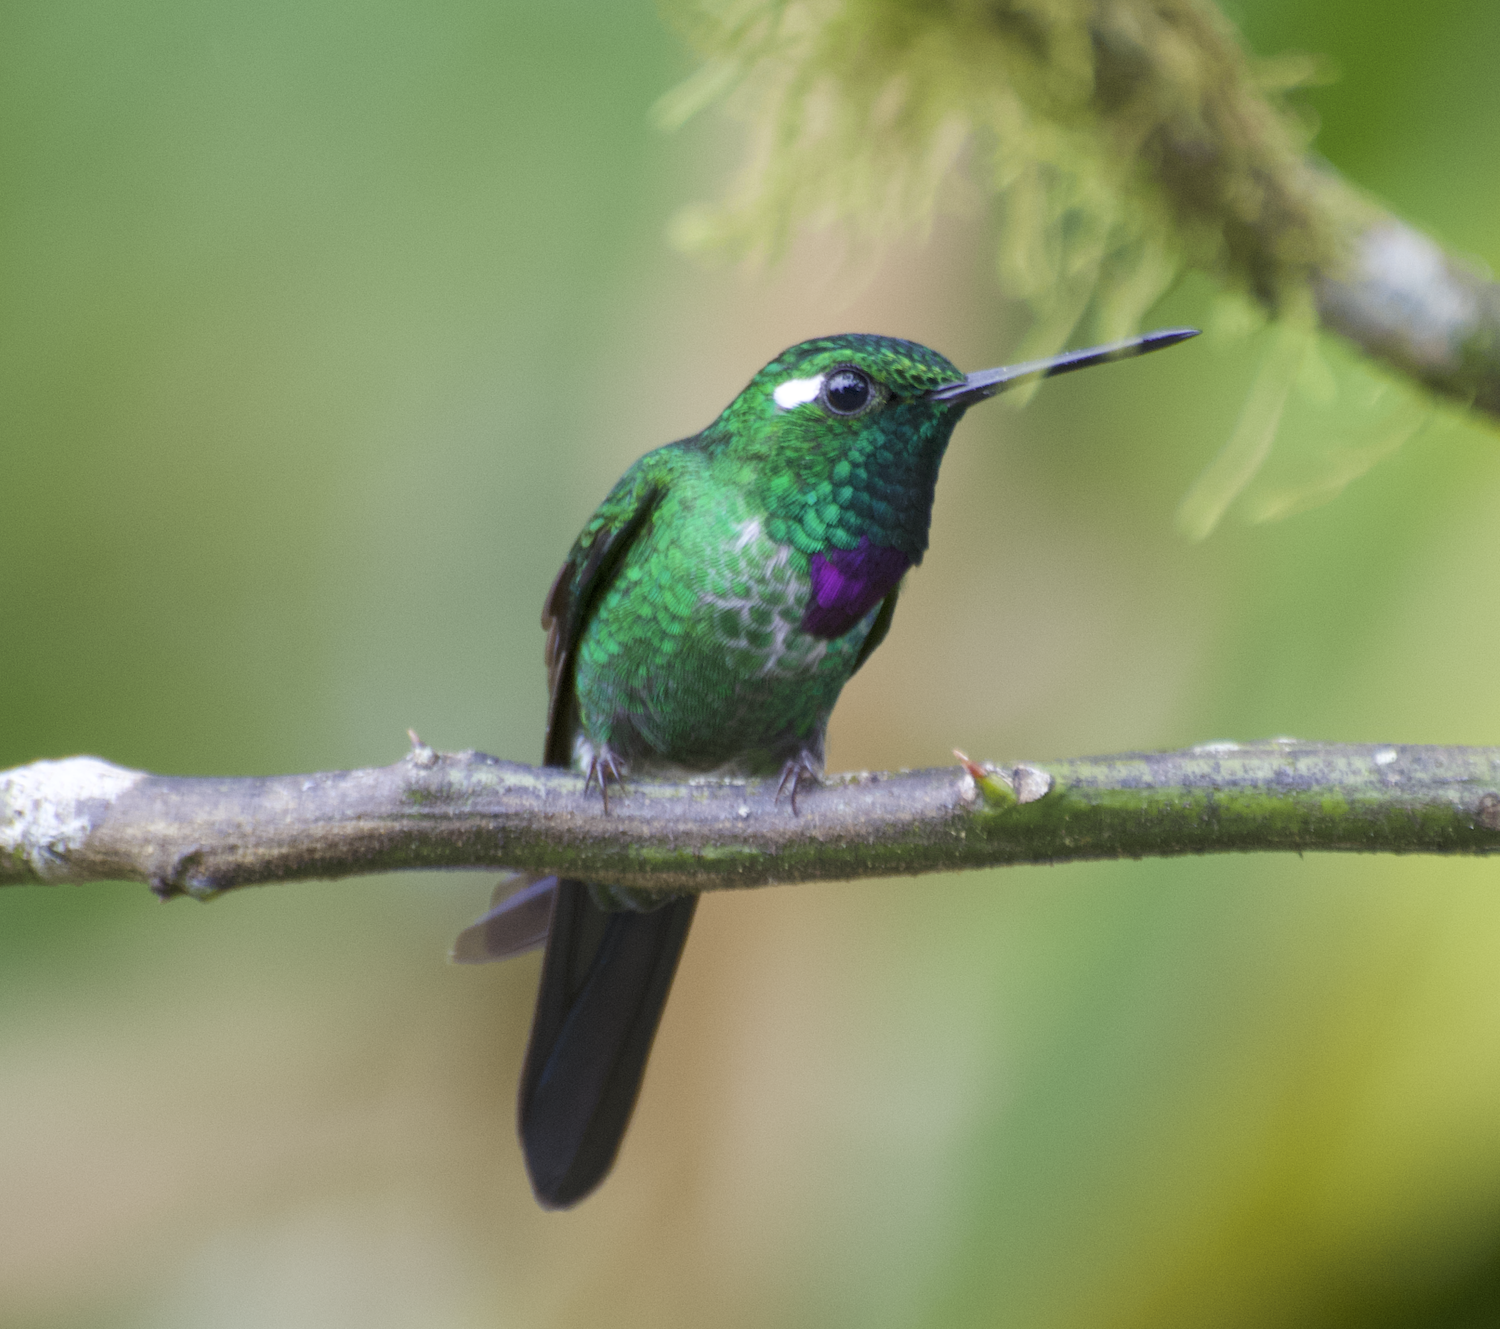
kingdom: Animalia
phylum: Chordata
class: Aves
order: Apodiformes
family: Trochilidae
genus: Urosticte
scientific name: Urosticte benjamini
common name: Purple-bibbed whitetip
